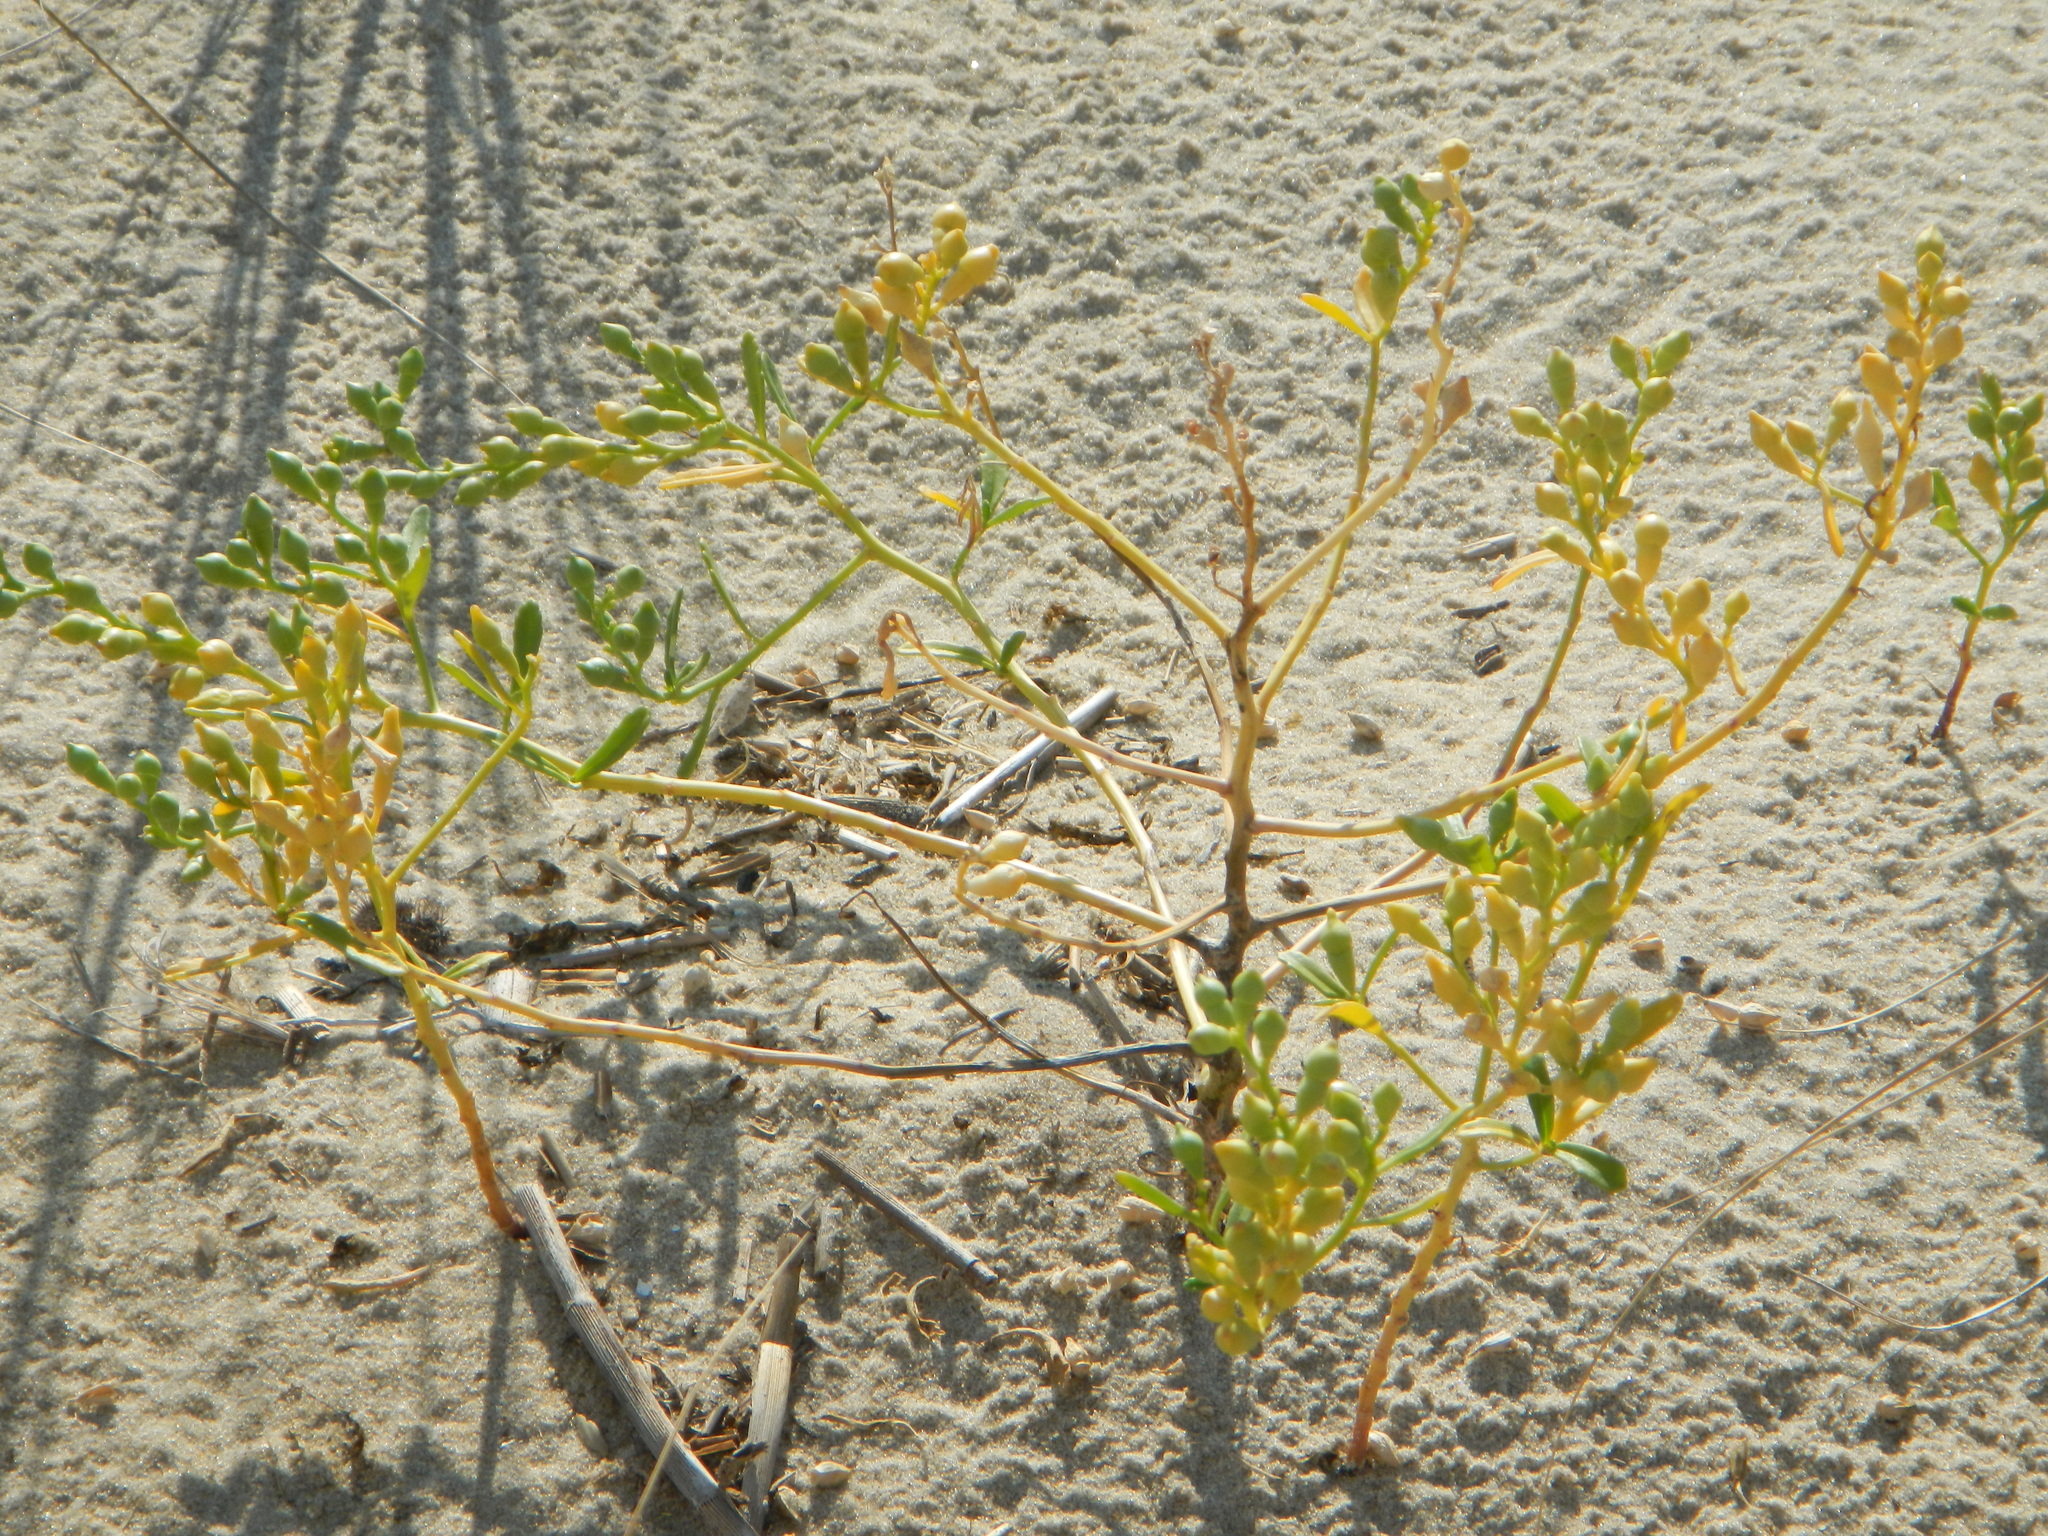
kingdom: Plantae
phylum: Tracheophyta
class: Magnoliopsida
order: Brassicales
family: Brassicaceae
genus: Cakile
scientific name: Cakile edentula
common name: American sea rocket
